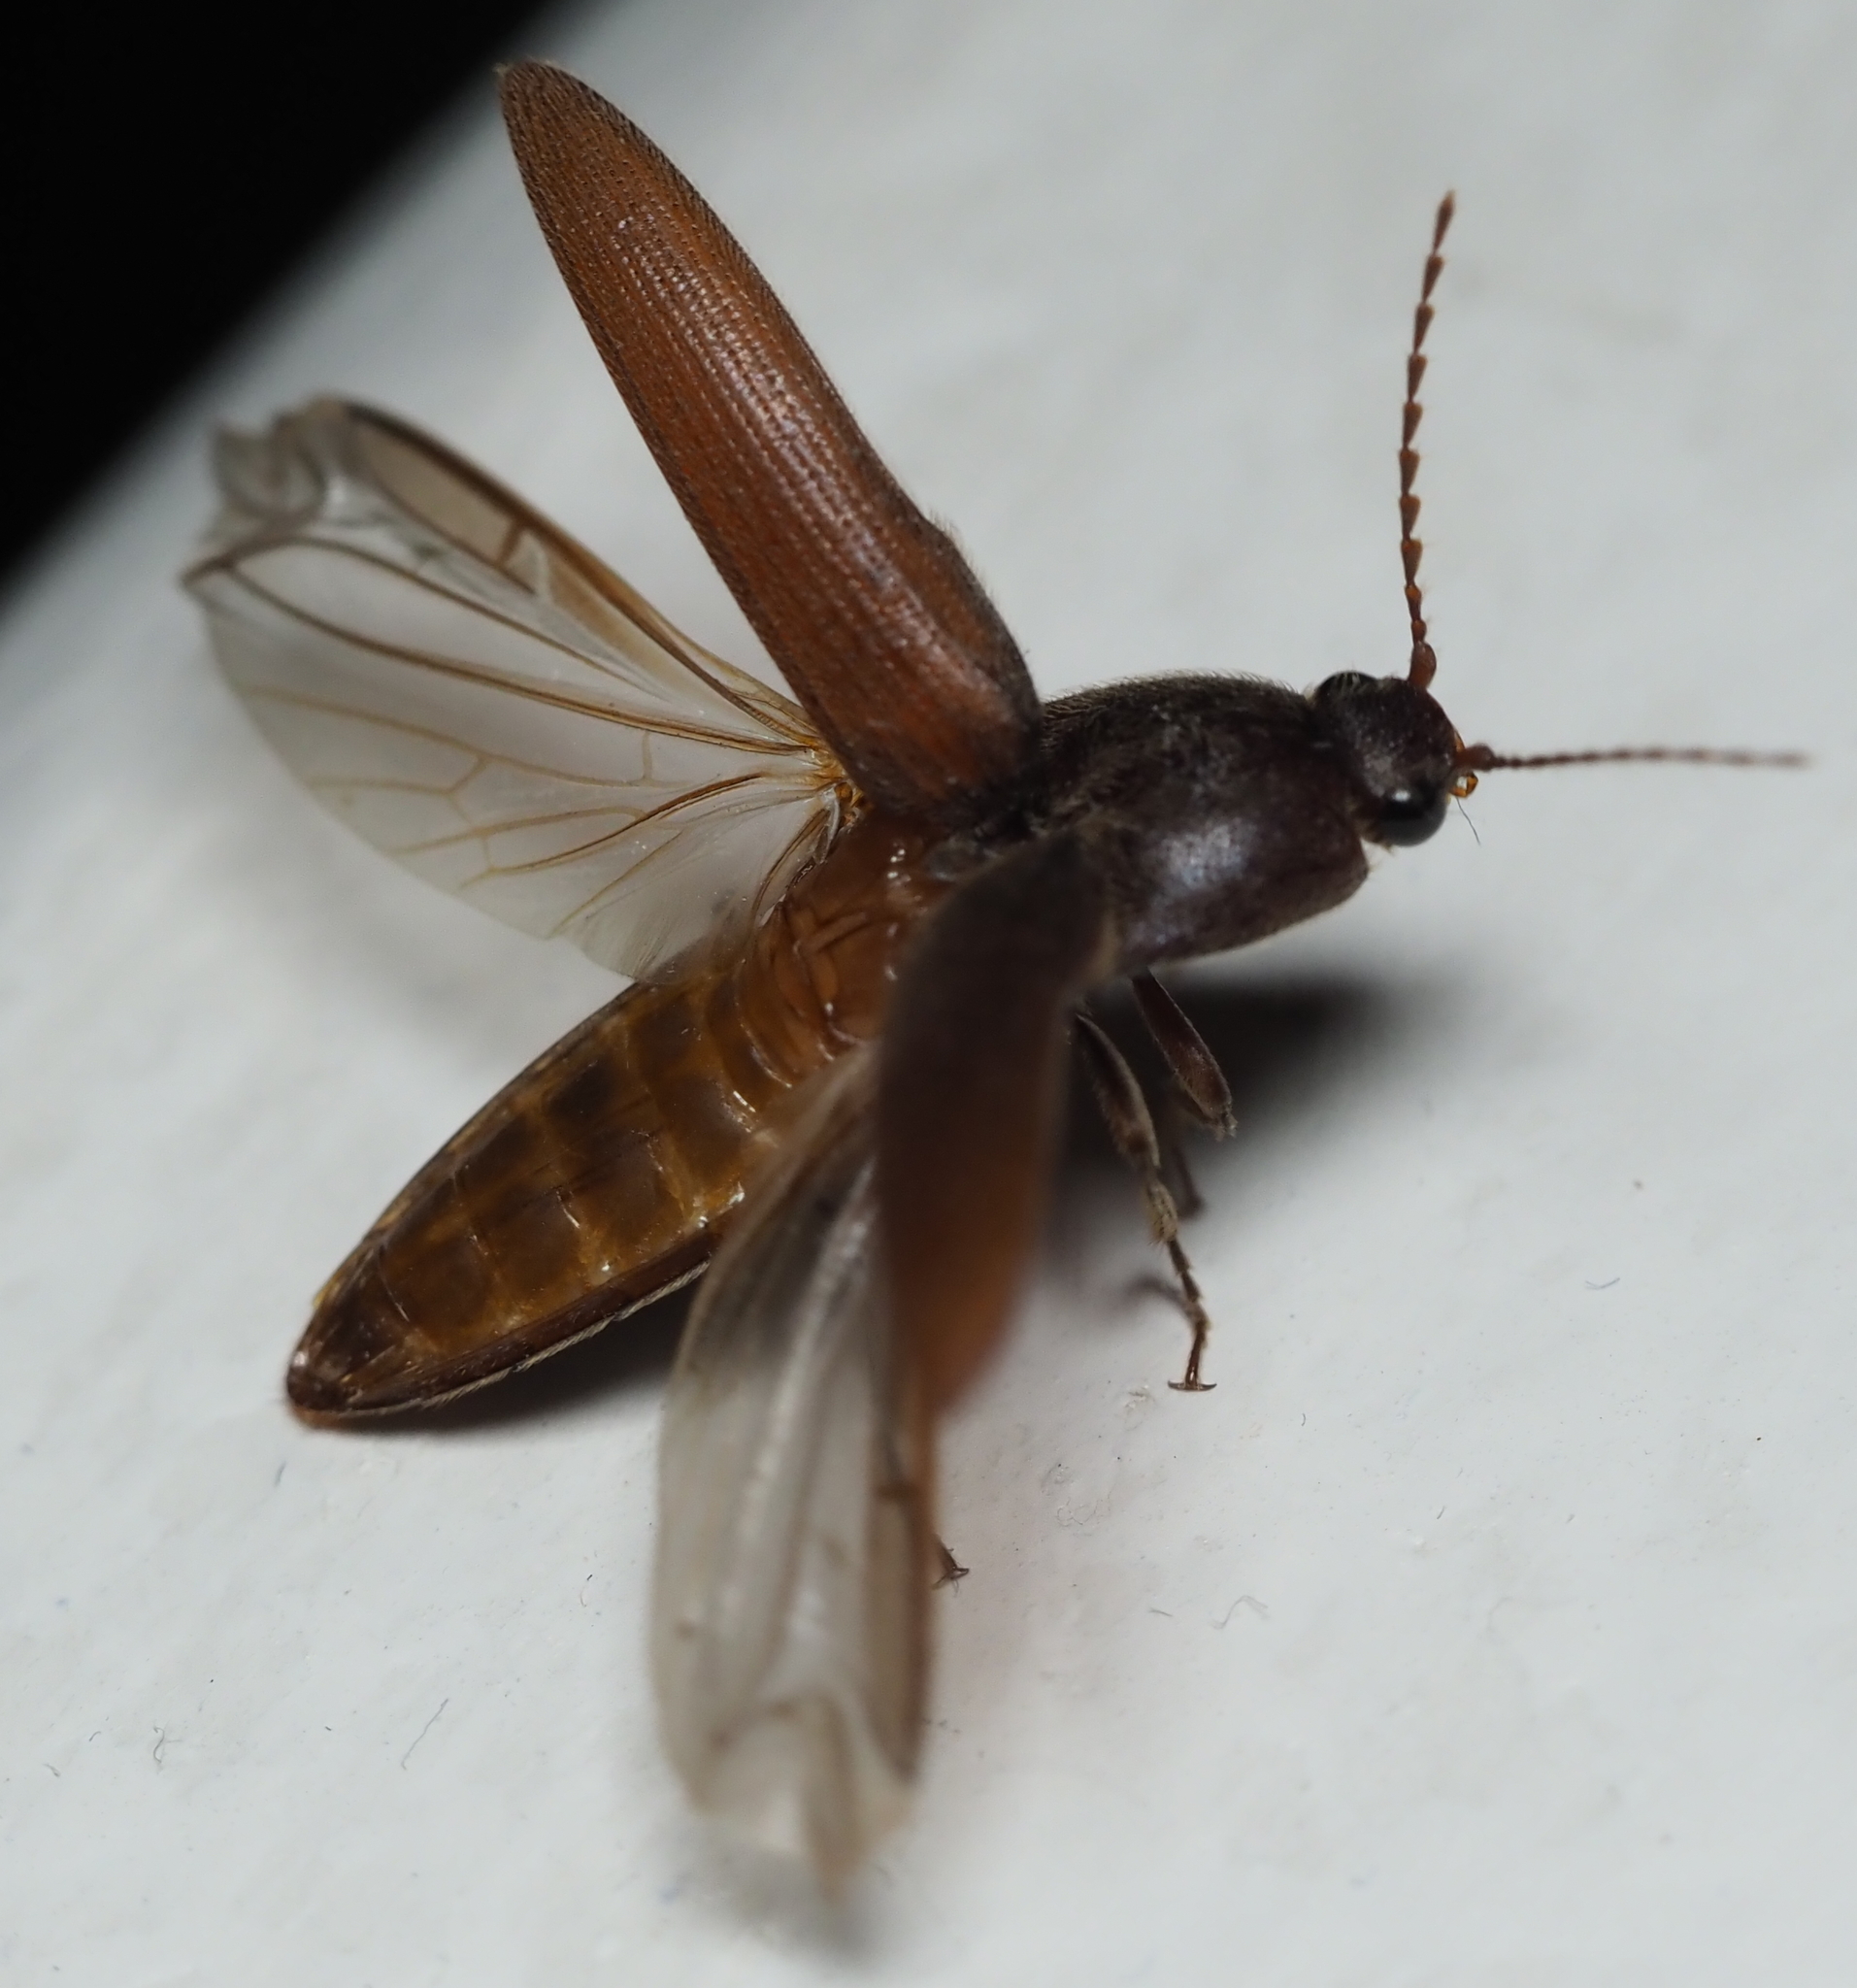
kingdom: Animalia
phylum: Arthropoda
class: Insecta
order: Coleoptera
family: Elateridae
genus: Melanotus
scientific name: Melanotus
